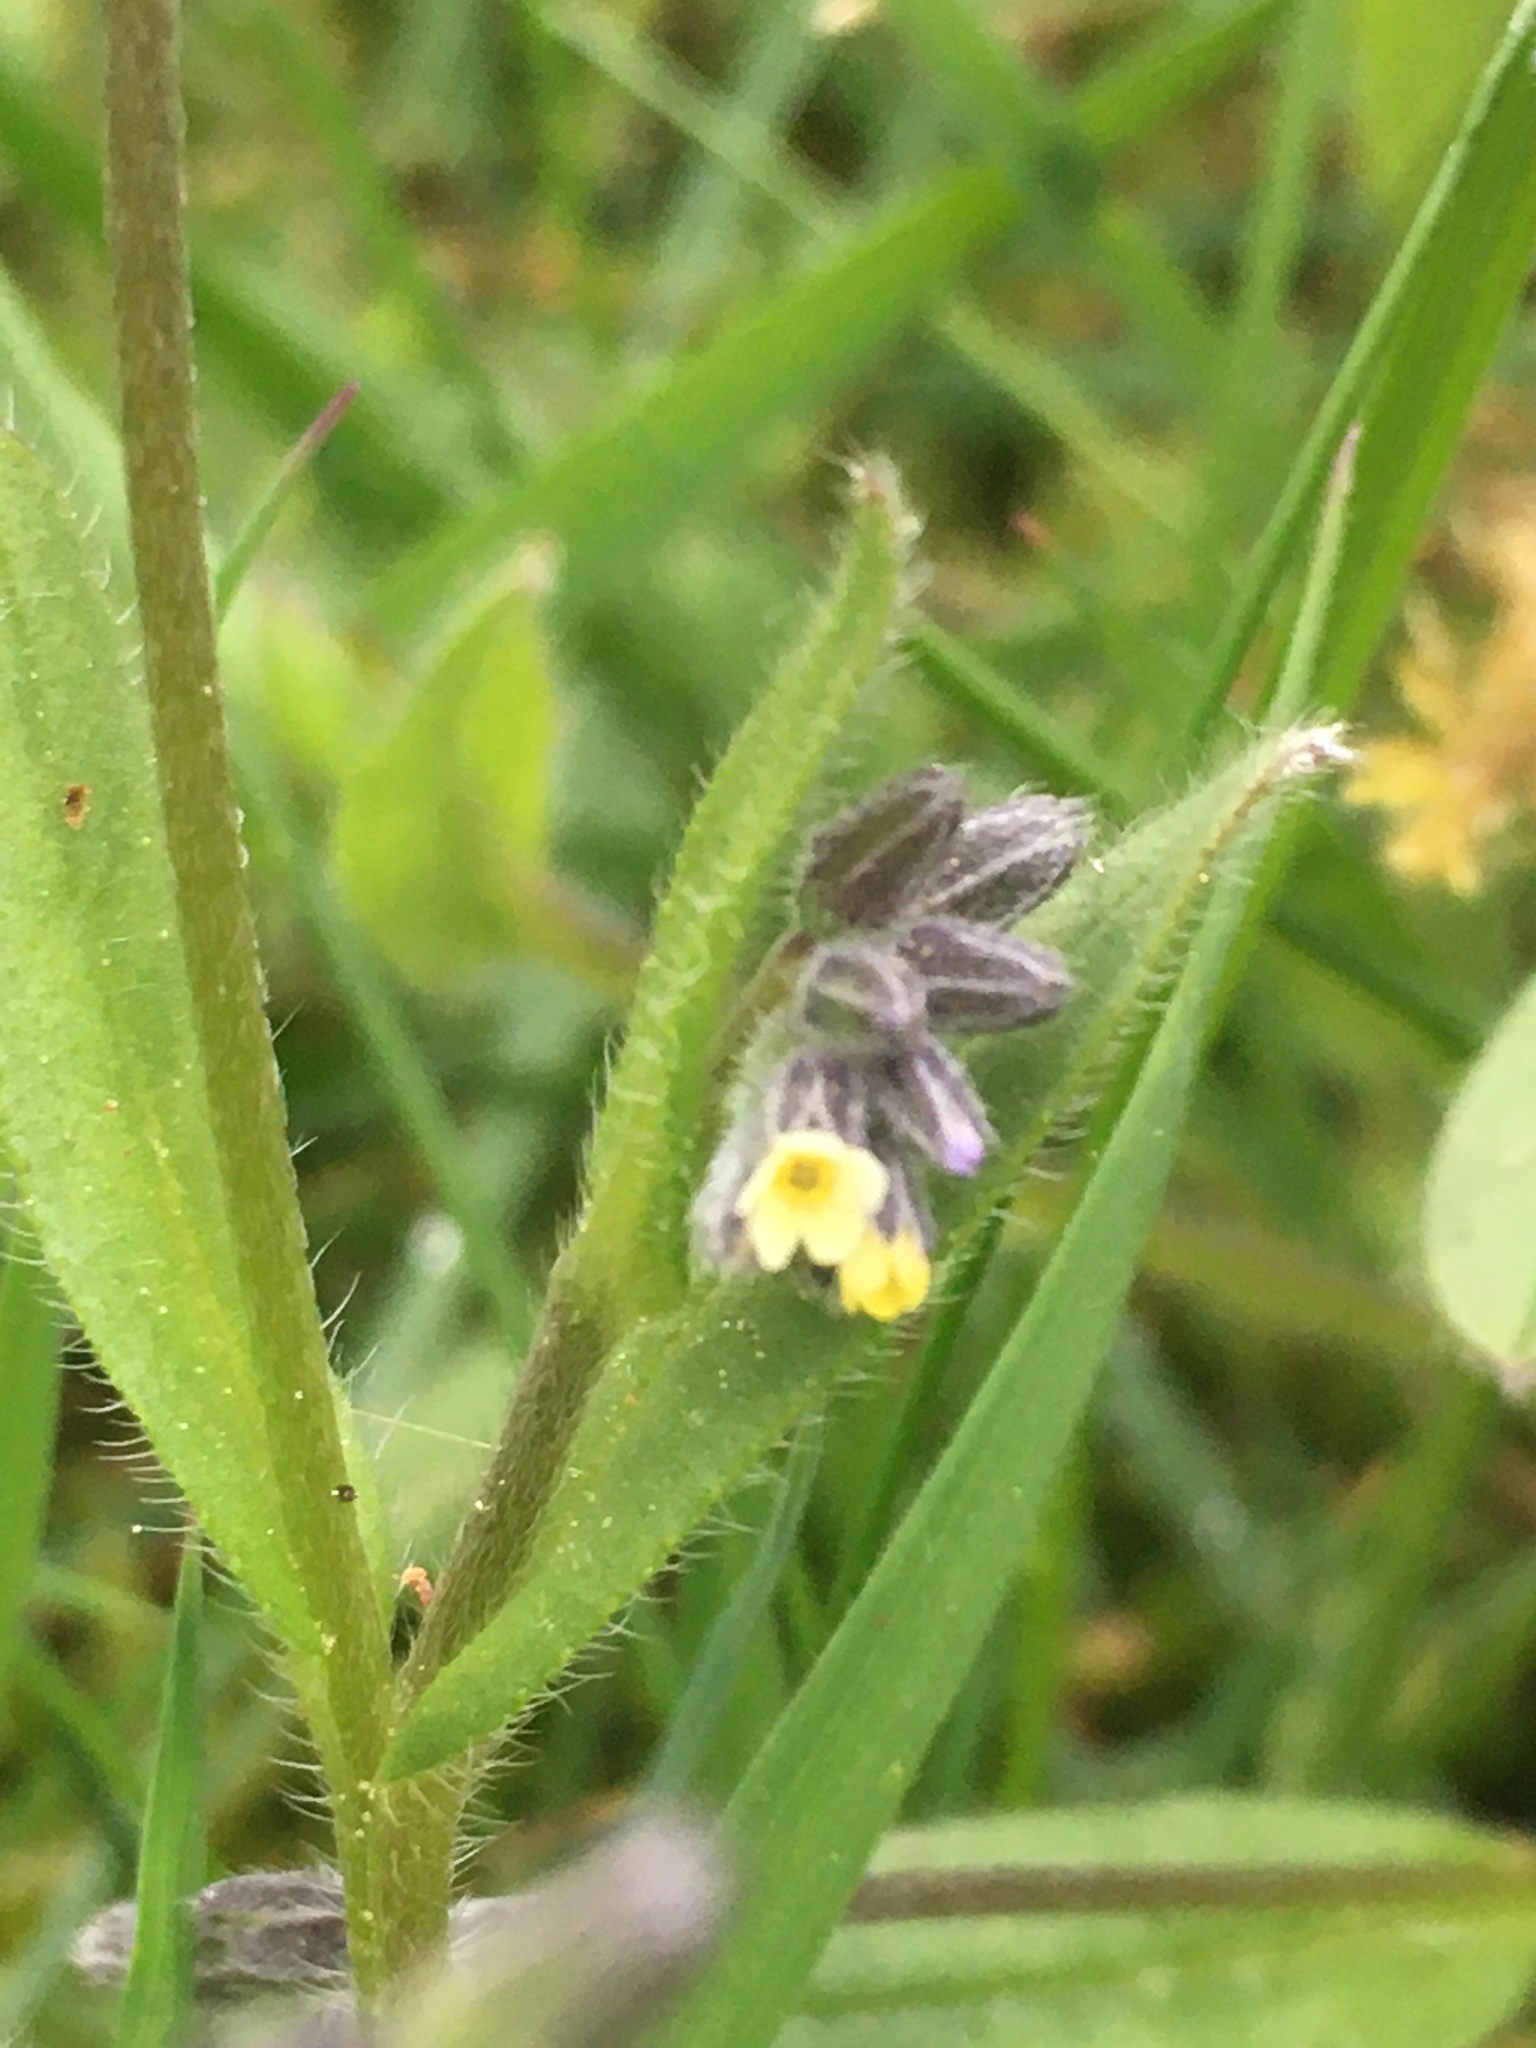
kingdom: Plantae
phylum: Tracheophyta
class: Magnoliopsida
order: Boraginales
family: Boraginaceae
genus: Myosotis
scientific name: Myosotis discolor
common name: Changing forget-me-not
